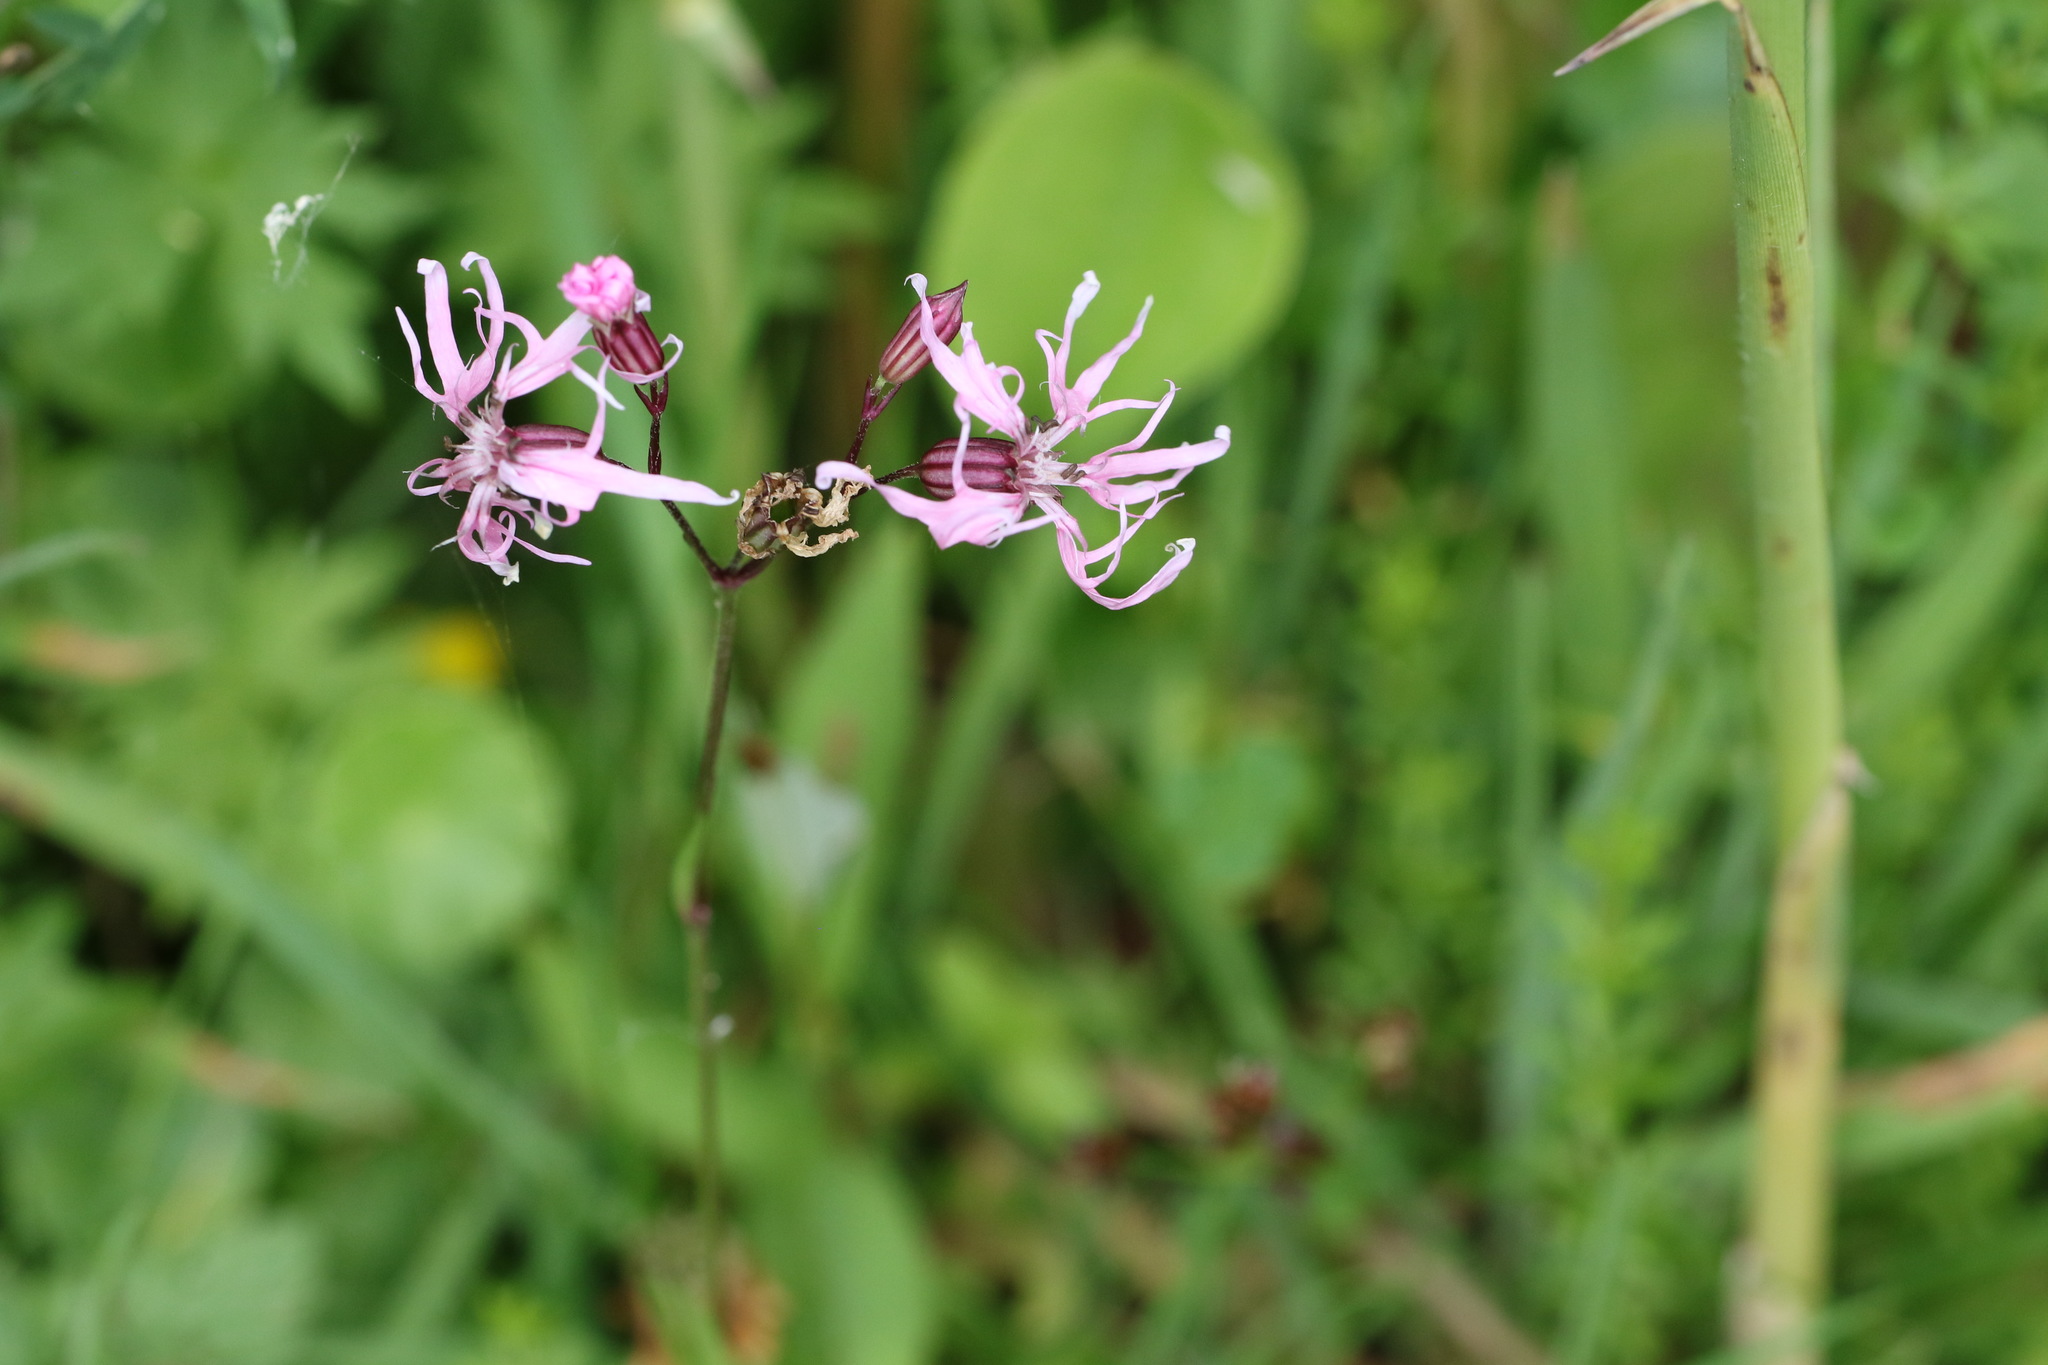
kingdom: Plantae
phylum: Tracheophyta
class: Magnoliopsida
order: Caryophyllales
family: Caryophyllaceae
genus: Silene
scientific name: Silene flos-cuculi
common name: Ragged-robin
